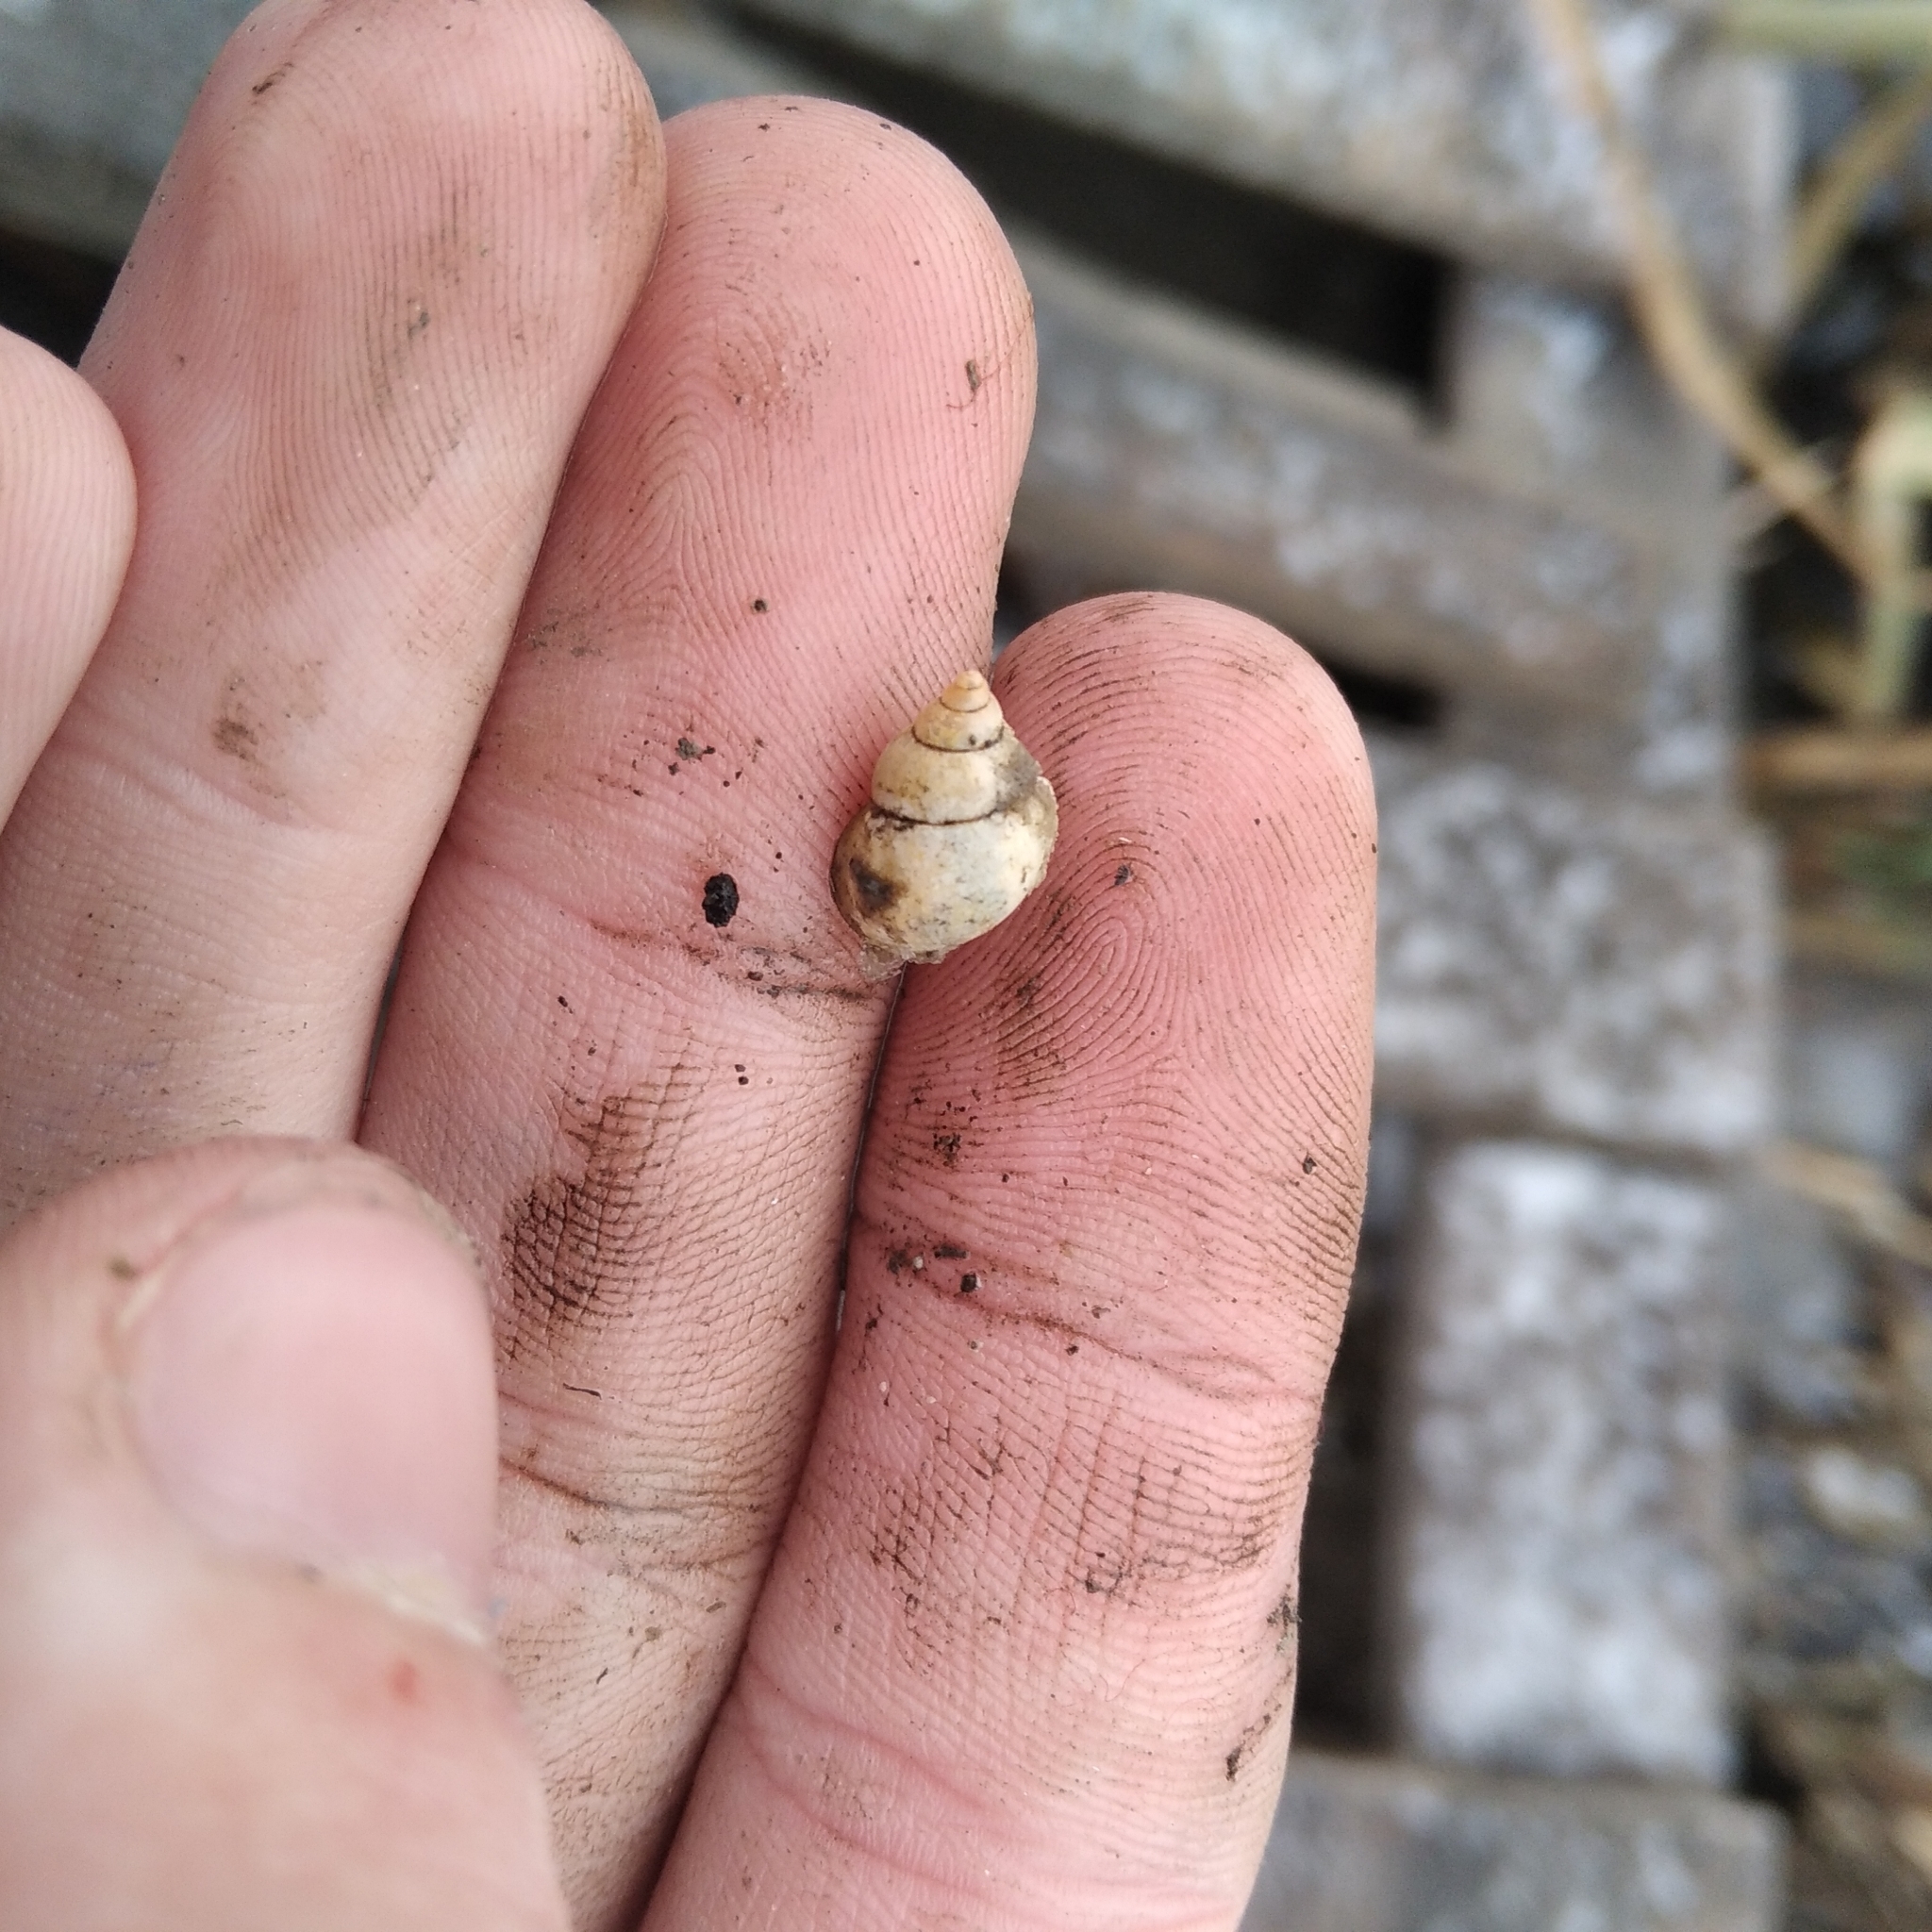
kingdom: Animalia
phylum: Mollusca
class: Gastropoda
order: Littorinimorpha
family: Bithyniidae
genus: Bithynia
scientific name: Bithynia tentaculata
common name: Common bithynia
